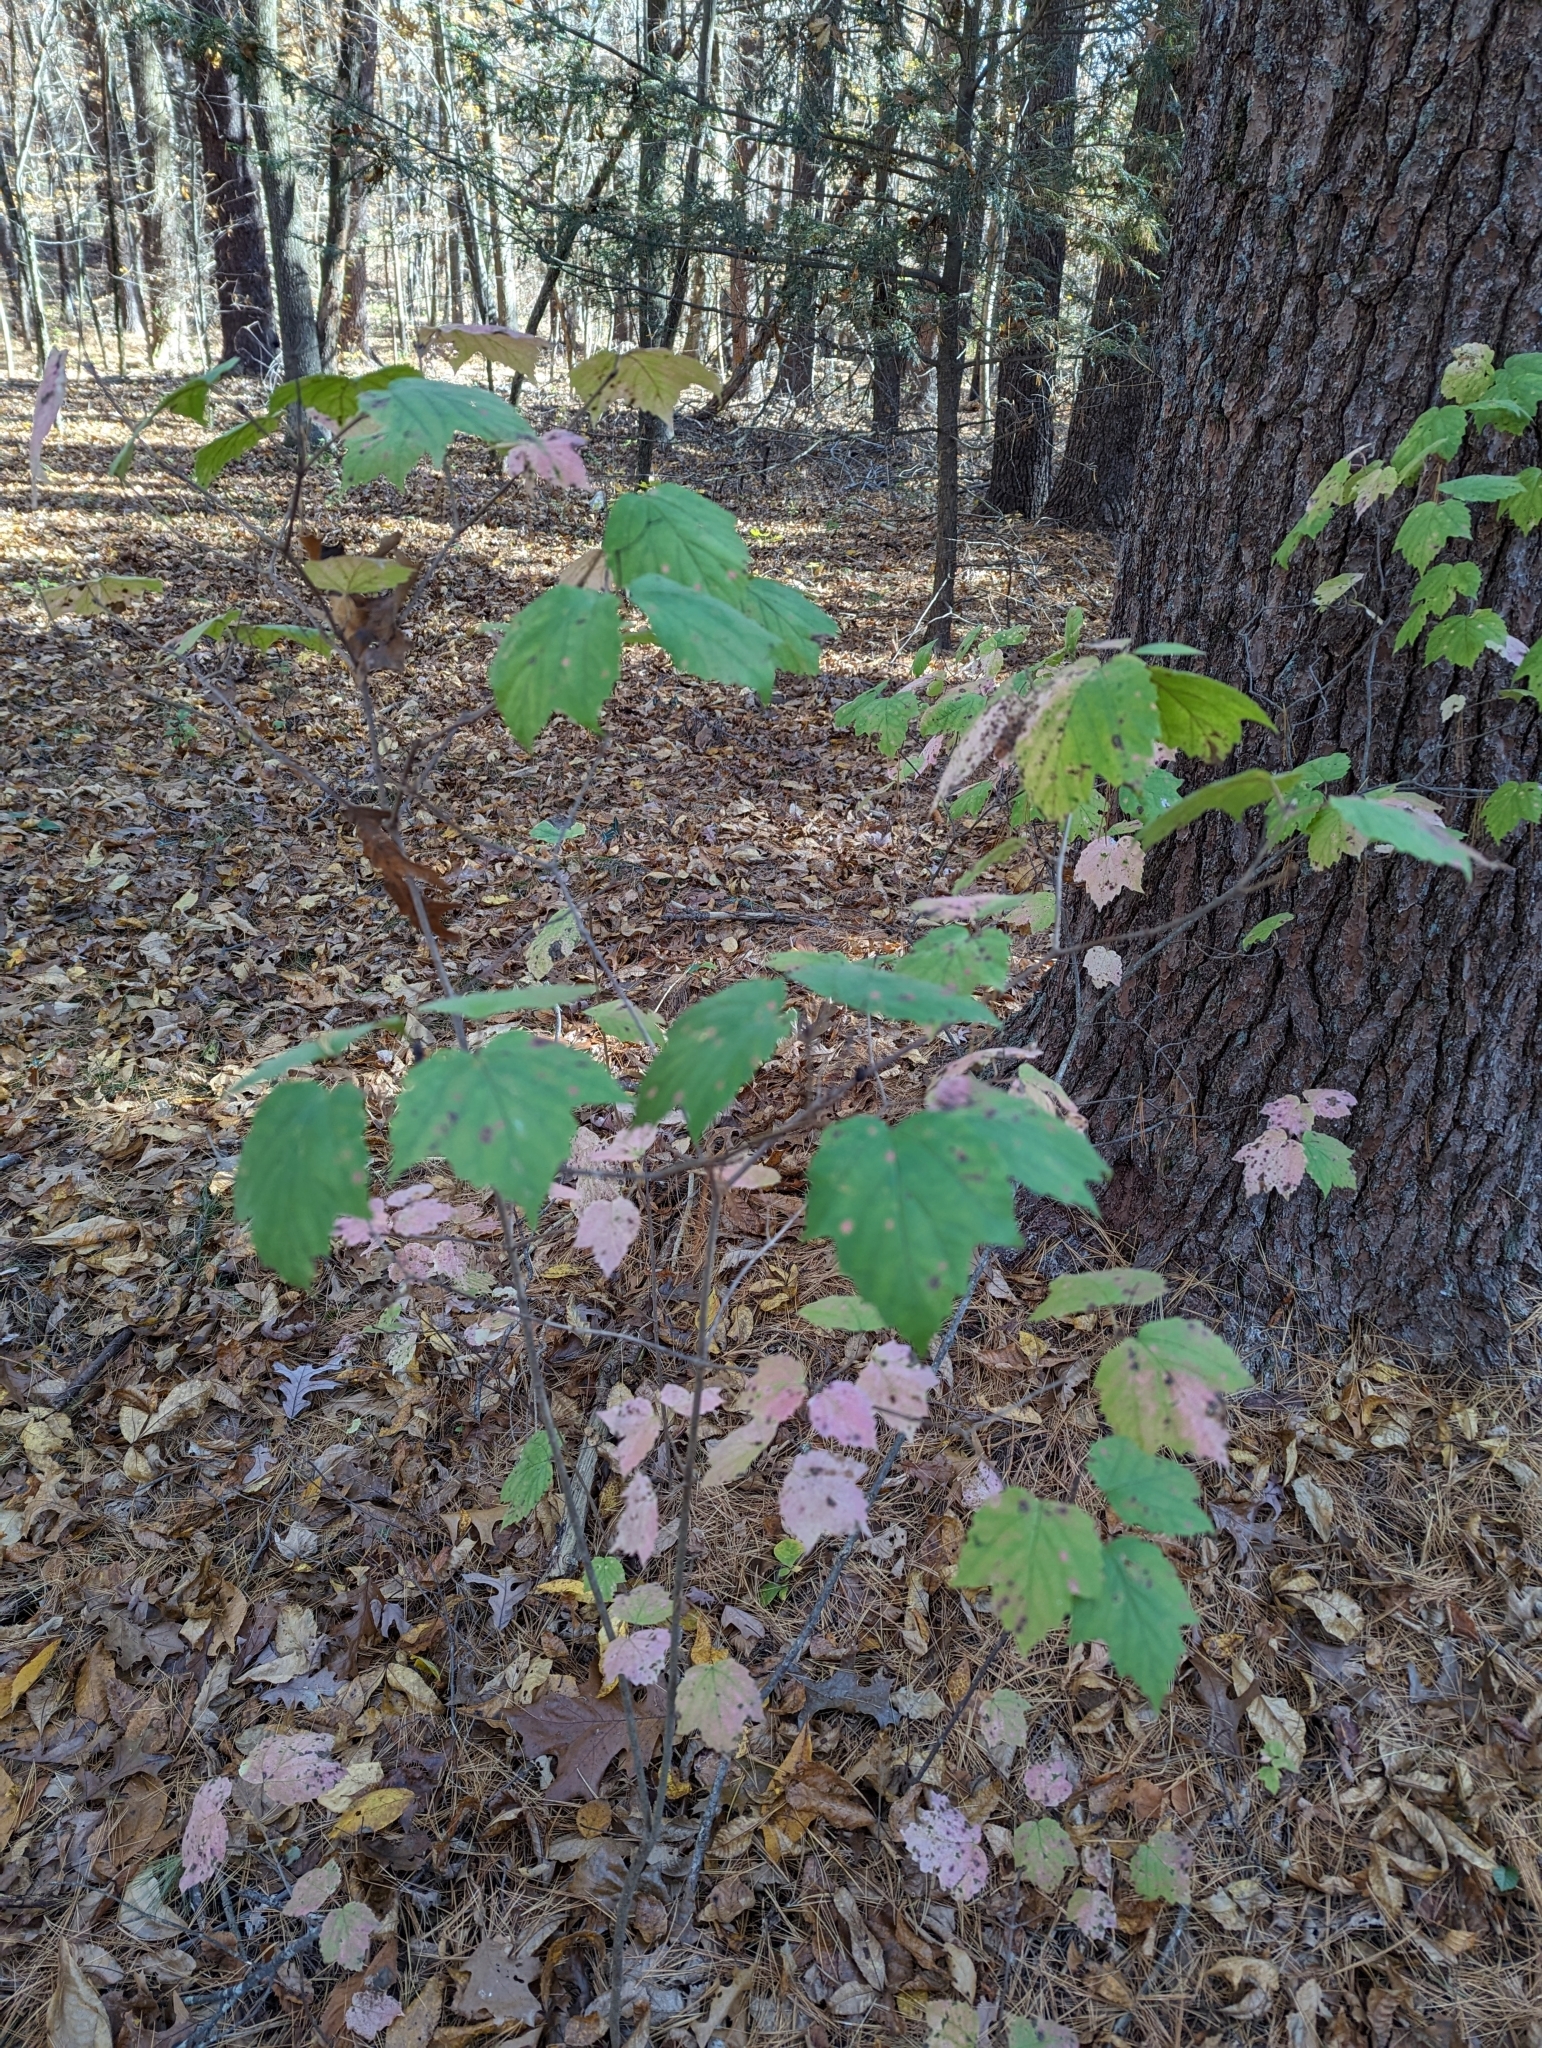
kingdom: Plantae
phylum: Tracheophyta
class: Magnoliopsida
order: Dipsacales
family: Viburnaceae
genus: Viburnum
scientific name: Viburnum acerifolium
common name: Dockmackie
